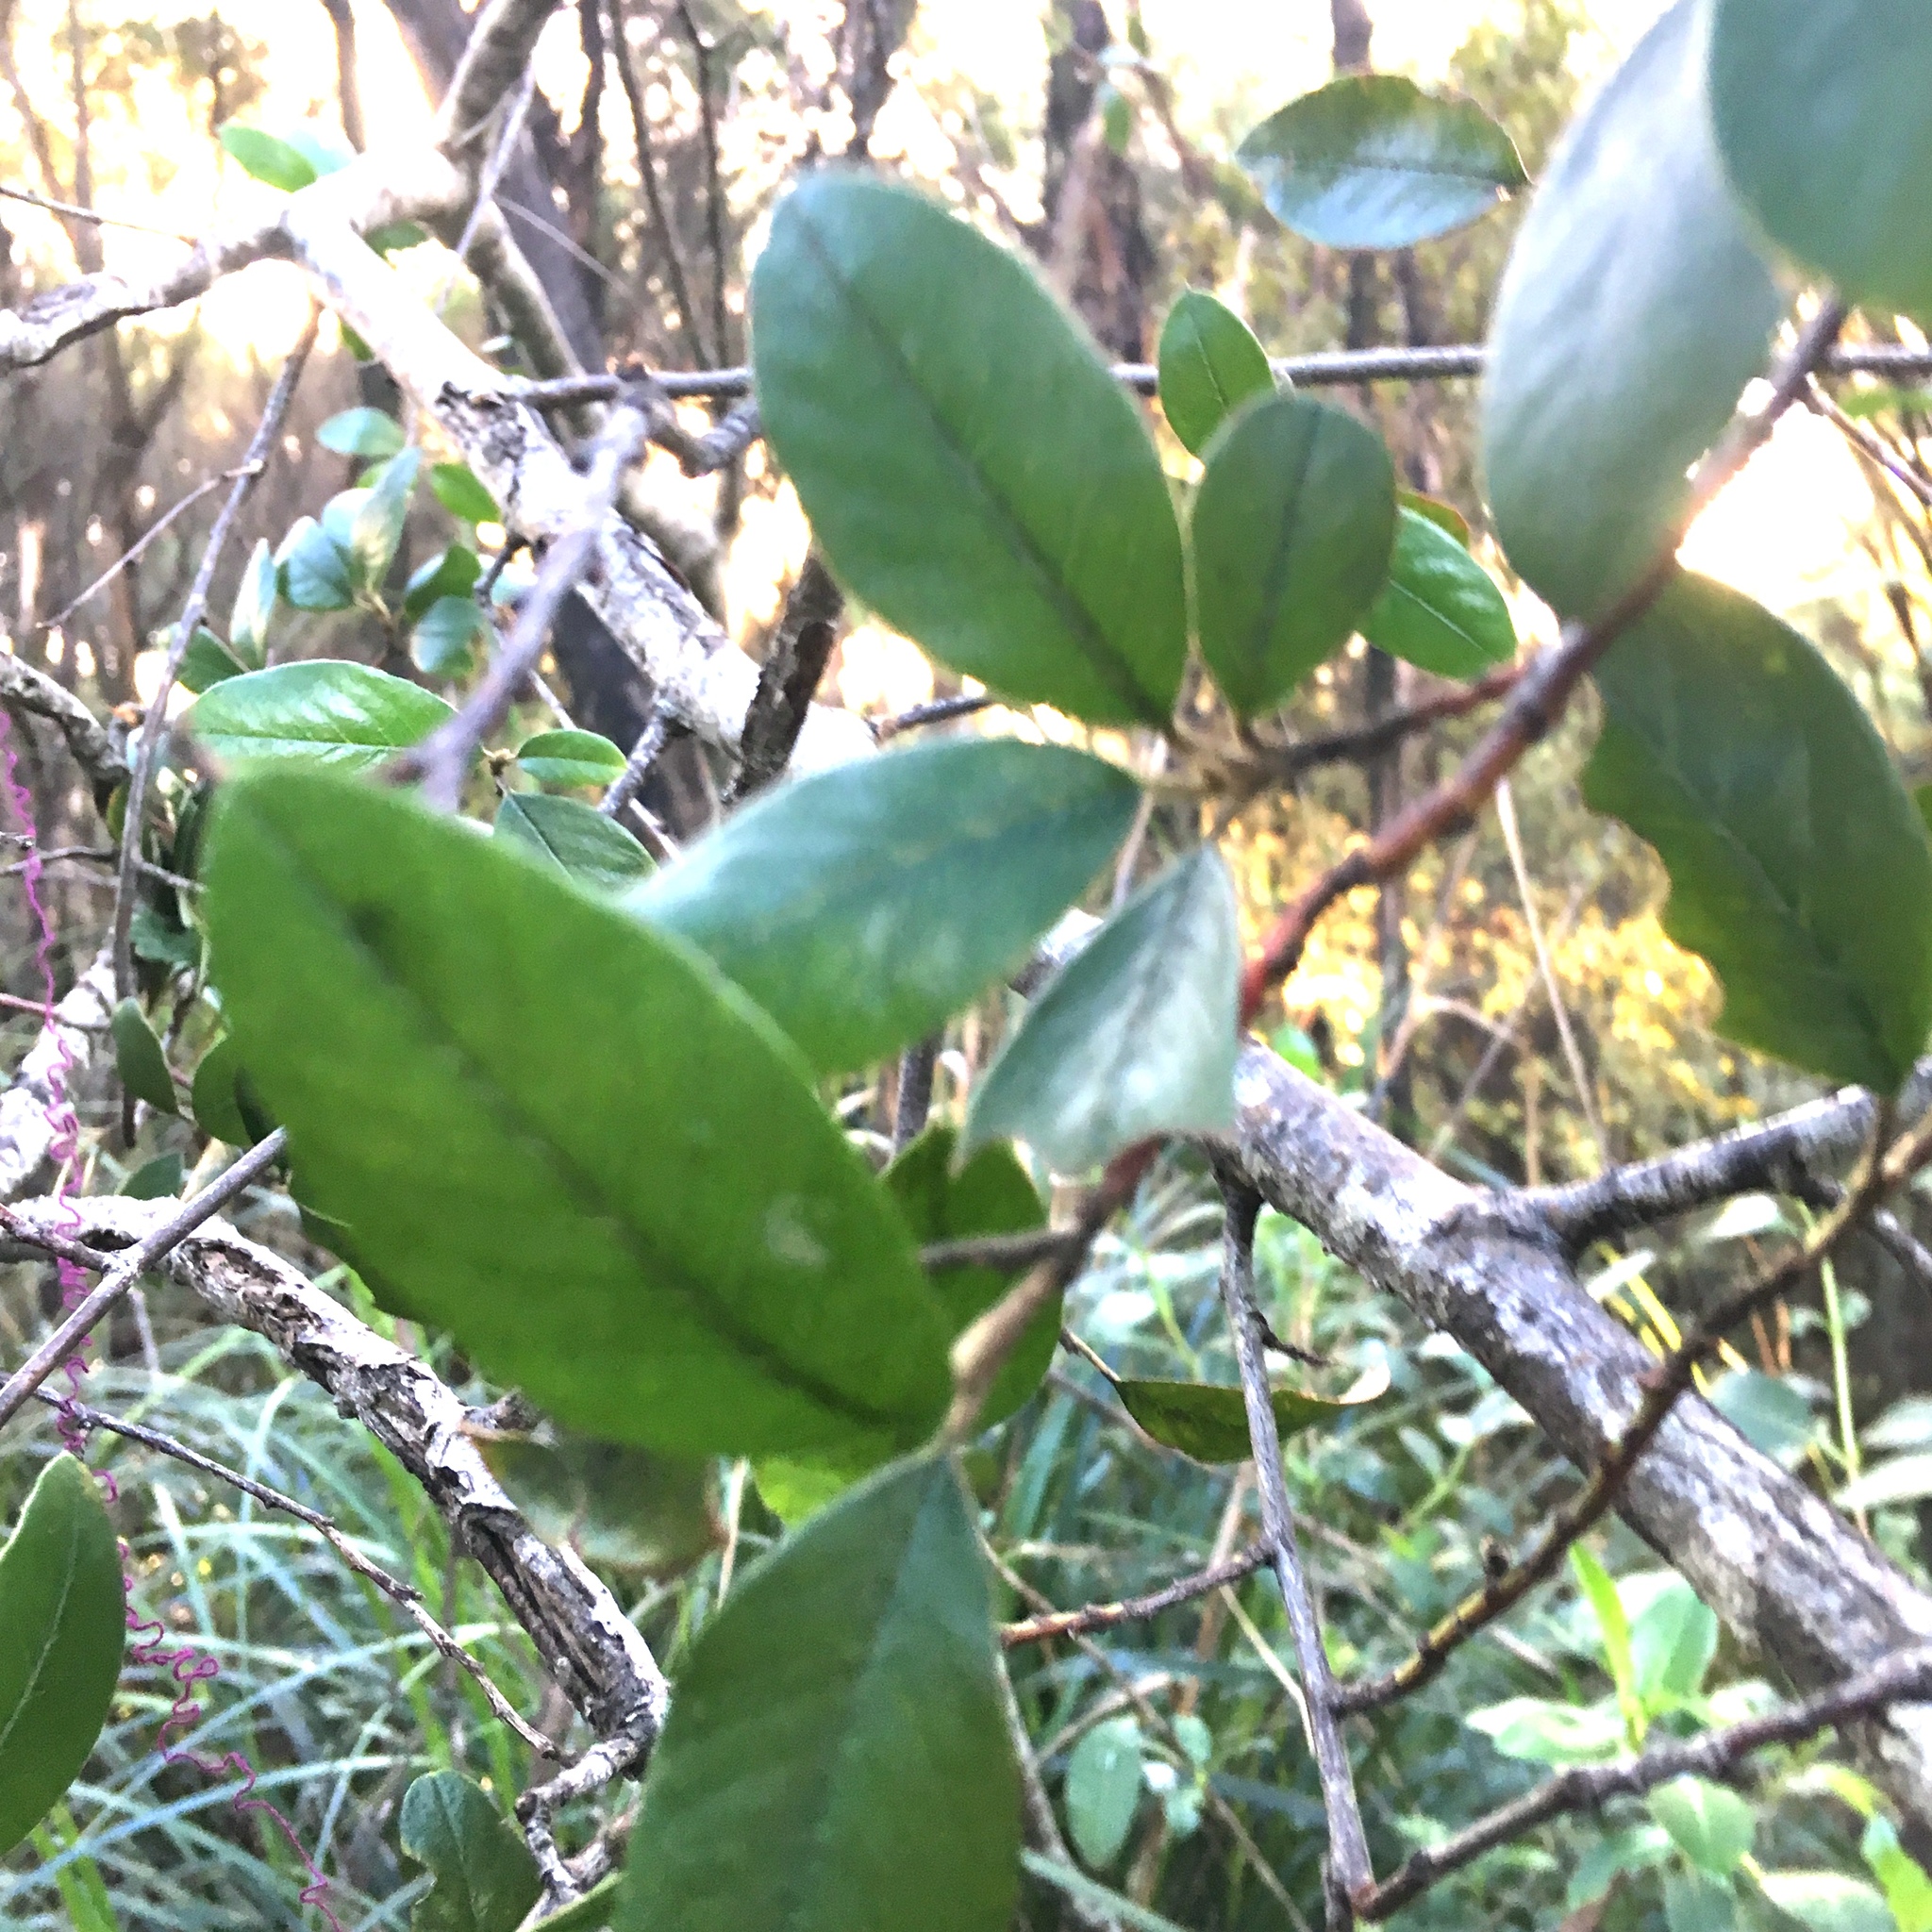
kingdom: Plantae
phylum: Tracheophyta
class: Magnoliopsida
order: Rosales
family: Rosaceae
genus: Cotoneaster
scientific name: Cotoneaster glaucophyllus
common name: Glaucous cotoneaster
